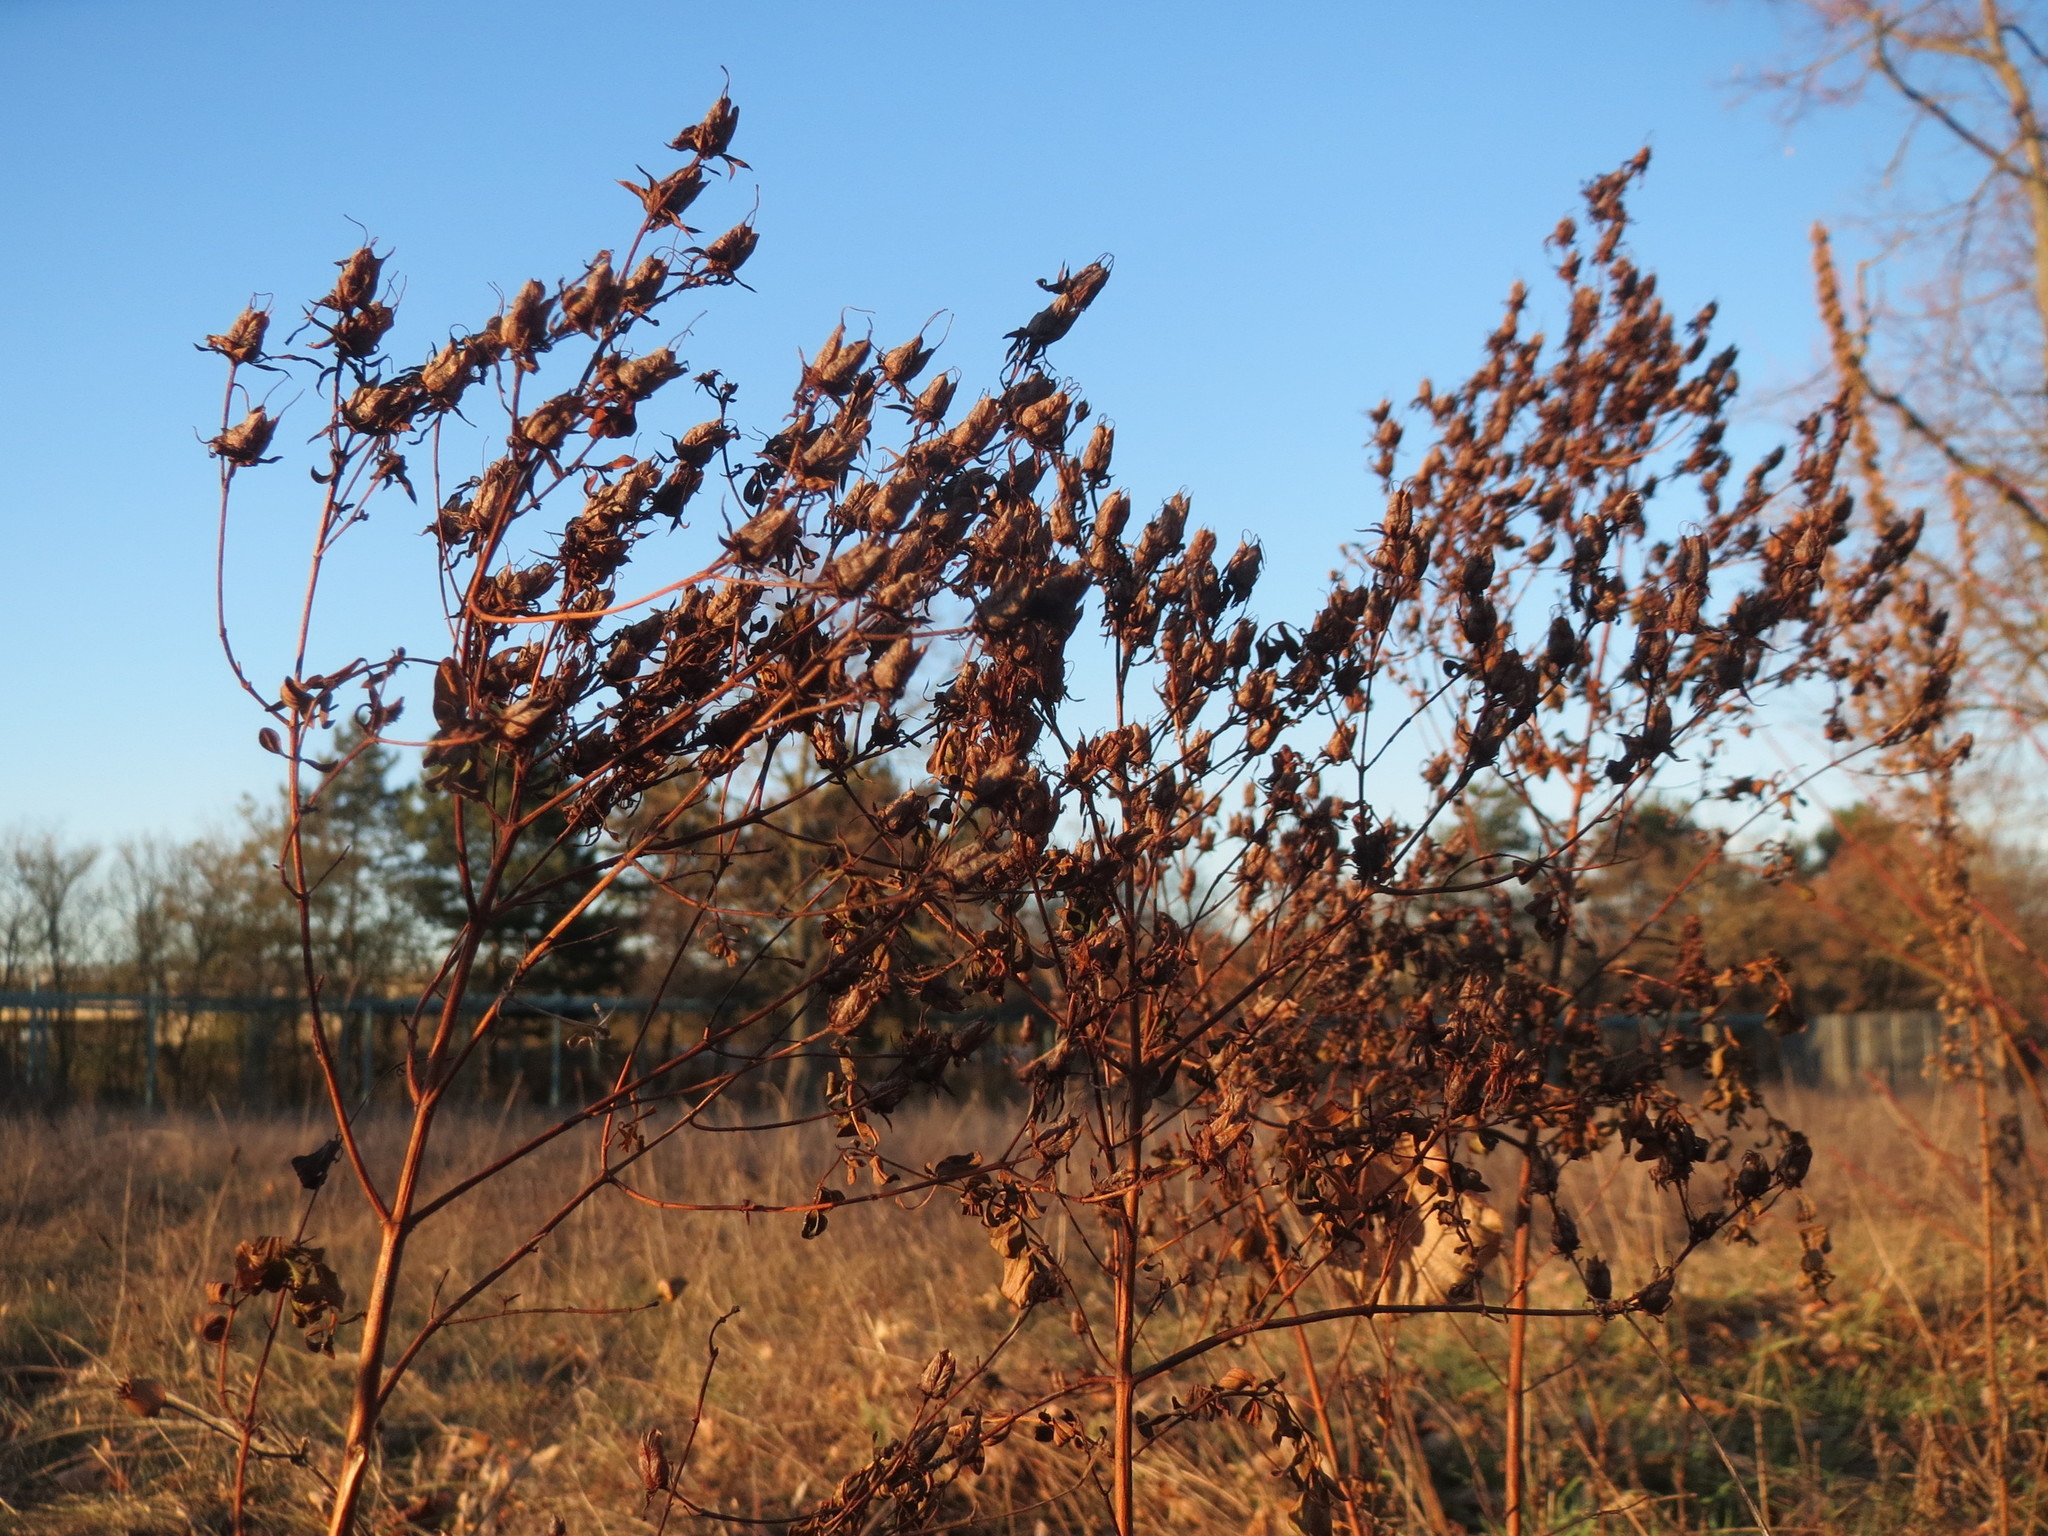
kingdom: Plantae
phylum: Tracheophyta
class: Magnoliopsida
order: Malpighiales
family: Hypericaceae
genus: Hypericum
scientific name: Hypericum perforatum
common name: Common st. johnswort
